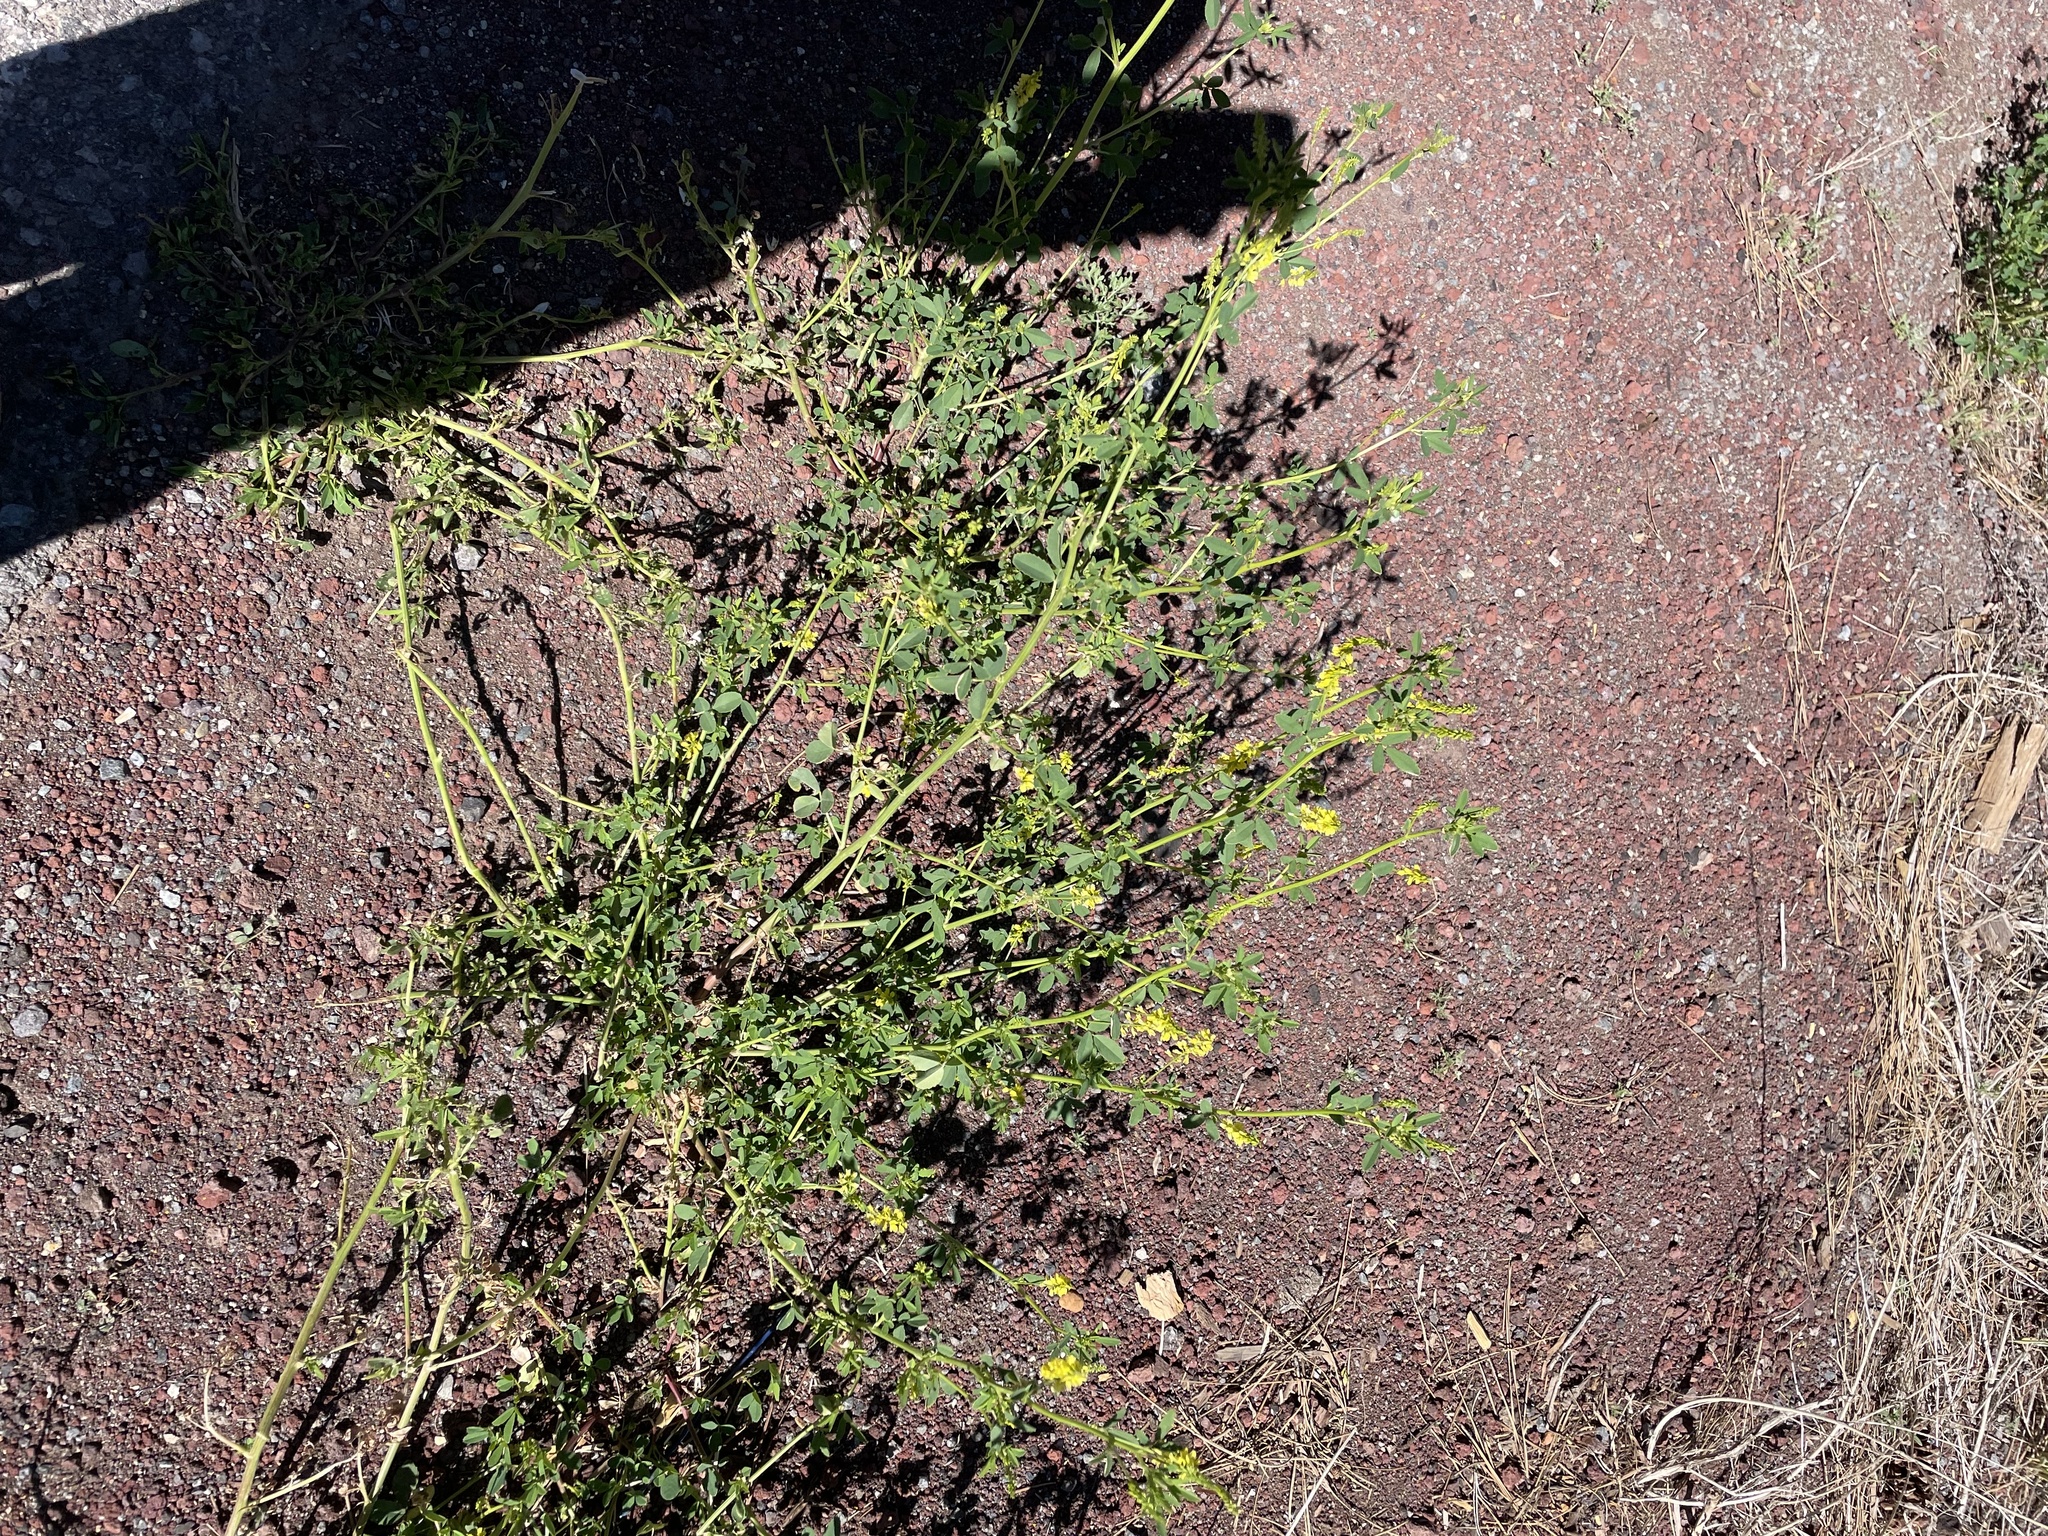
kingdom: Plantae
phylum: Tracheophyta
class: Magnoliopsida
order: Fabales
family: Fabaceae
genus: Melilotus
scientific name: Melilotus officinalis
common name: Sweetclover
